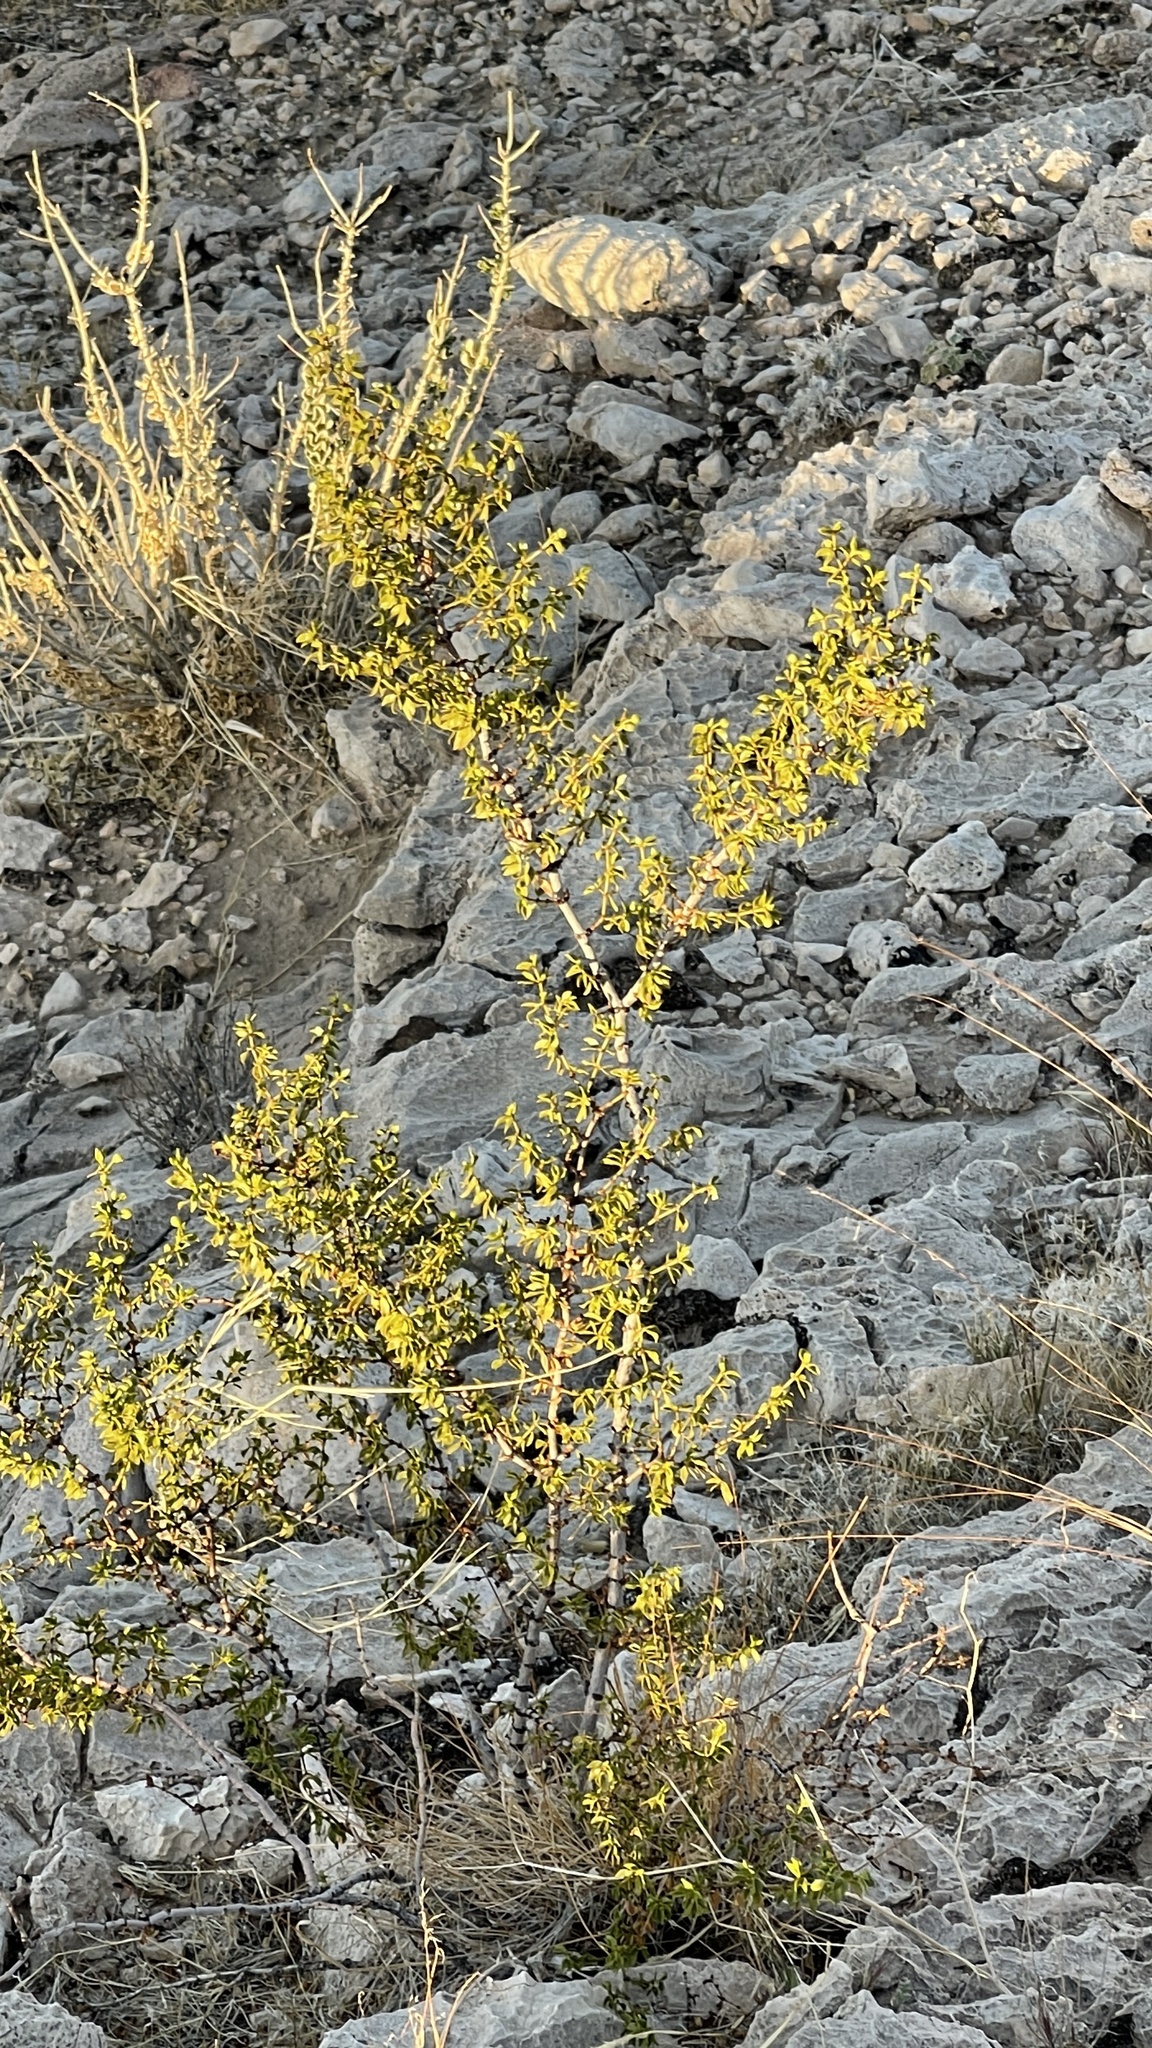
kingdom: Plantae
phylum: Tracheophyta
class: Magnoliopsida
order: Zygophyllales
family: Zygophyllaceae
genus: Larrea
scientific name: Larrea tridentata
